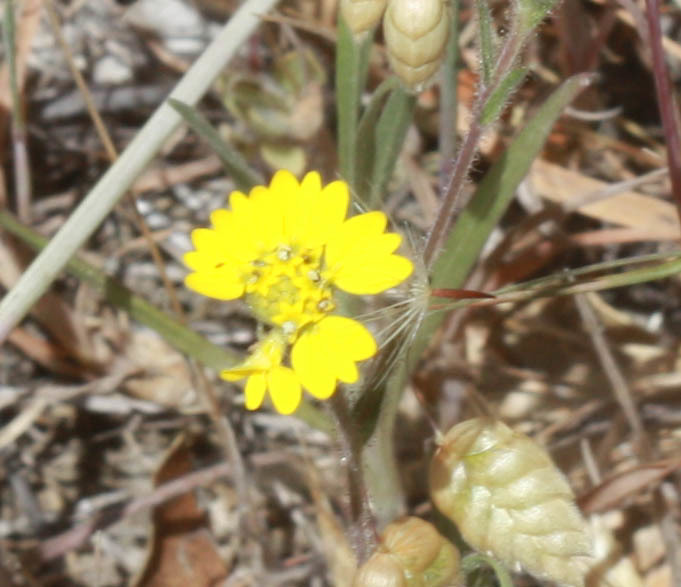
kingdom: Plantae
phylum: Tracheophyta
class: Magnoliopsida
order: Asterales
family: Asteraceae
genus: Hemizonia
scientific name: Hemizonia congesta
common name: Hayfield tarweed
